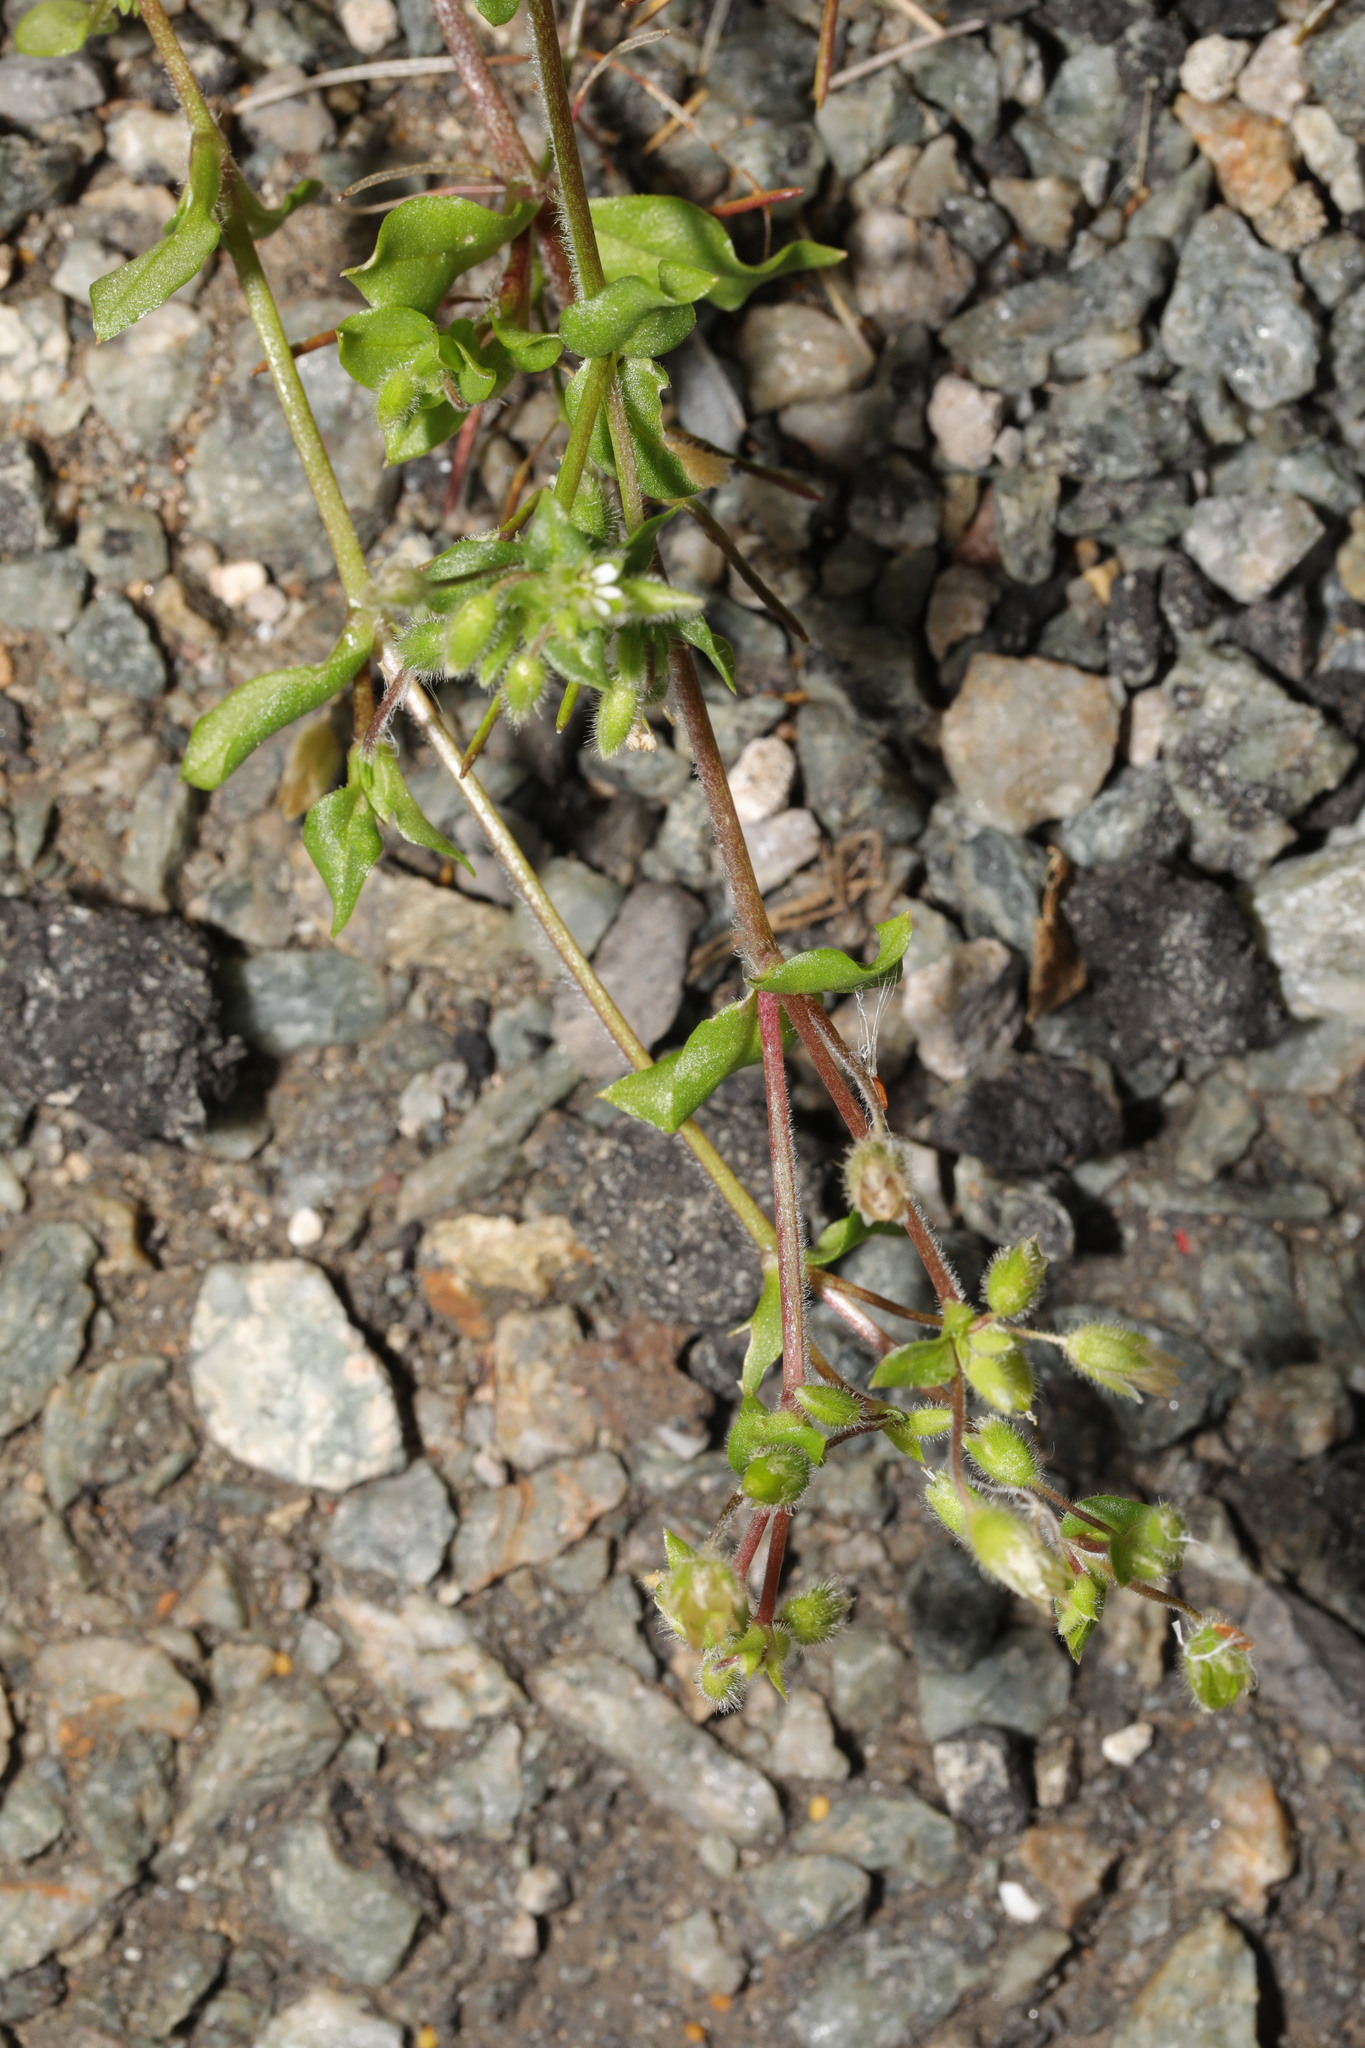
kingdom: Plantae
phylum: Tracheophyta
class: Magnoliopsida
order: Caryophyllales
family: Caryophyllaceae
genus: Cerastium
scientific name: Cerastium fontanum
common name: Common mouse-ear
